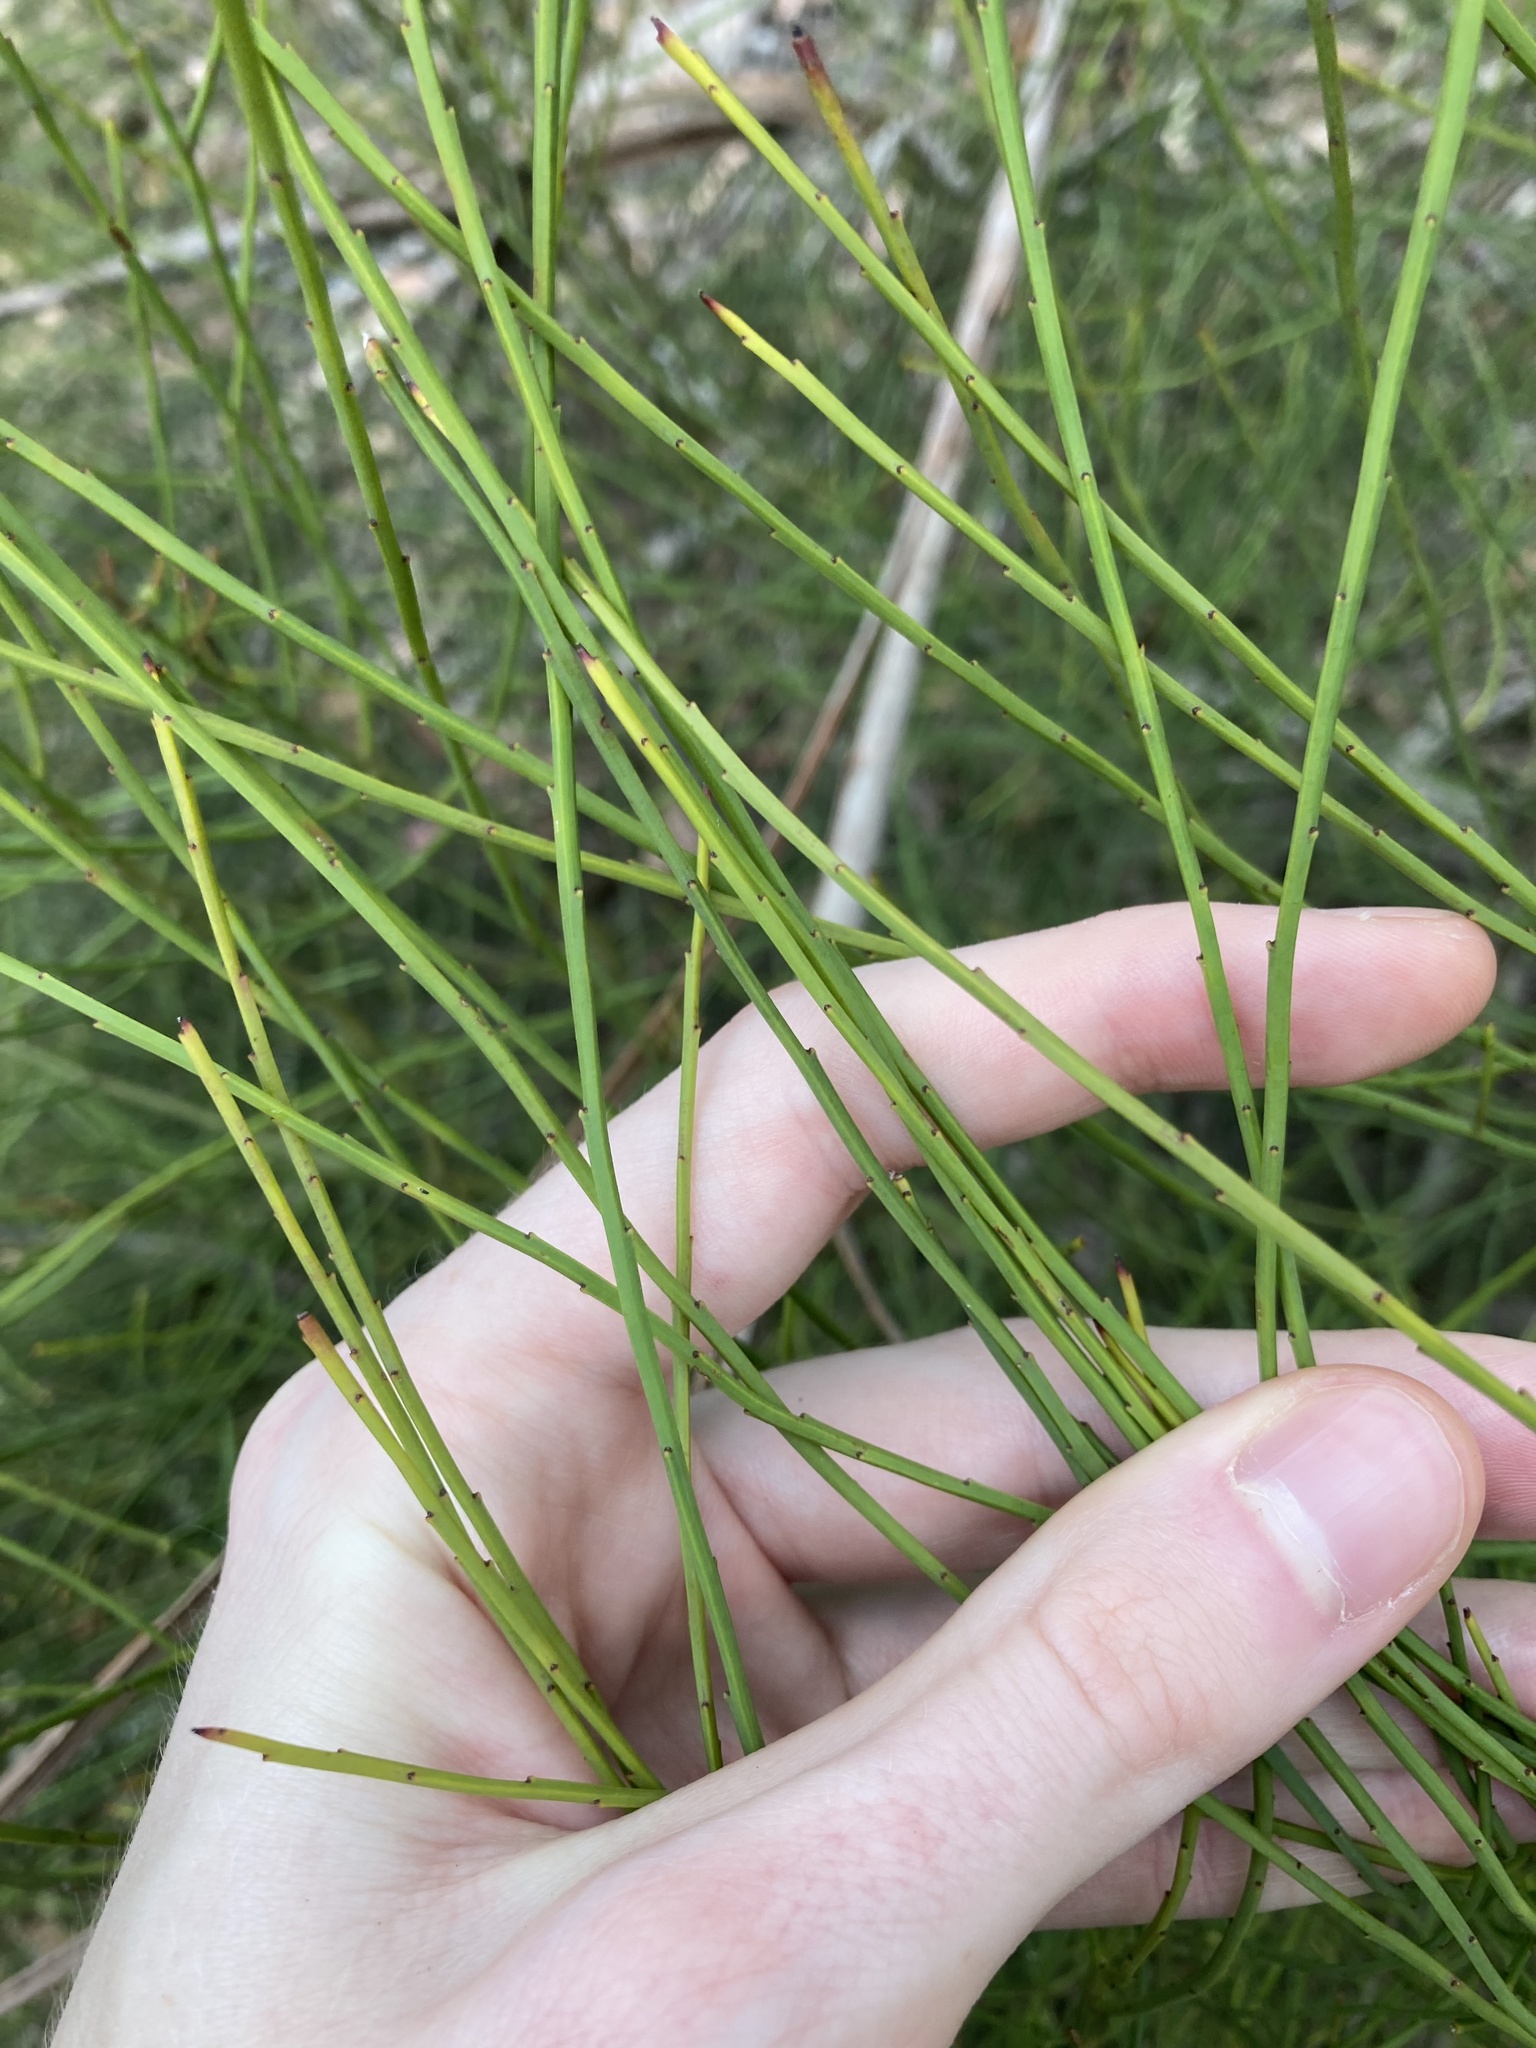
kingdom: Plantae
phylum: Tracheophyta
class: Magnoliopsida
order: Santalales
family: Amphorogynaceae
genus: Leptomeria
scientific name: Leptomeria acida
